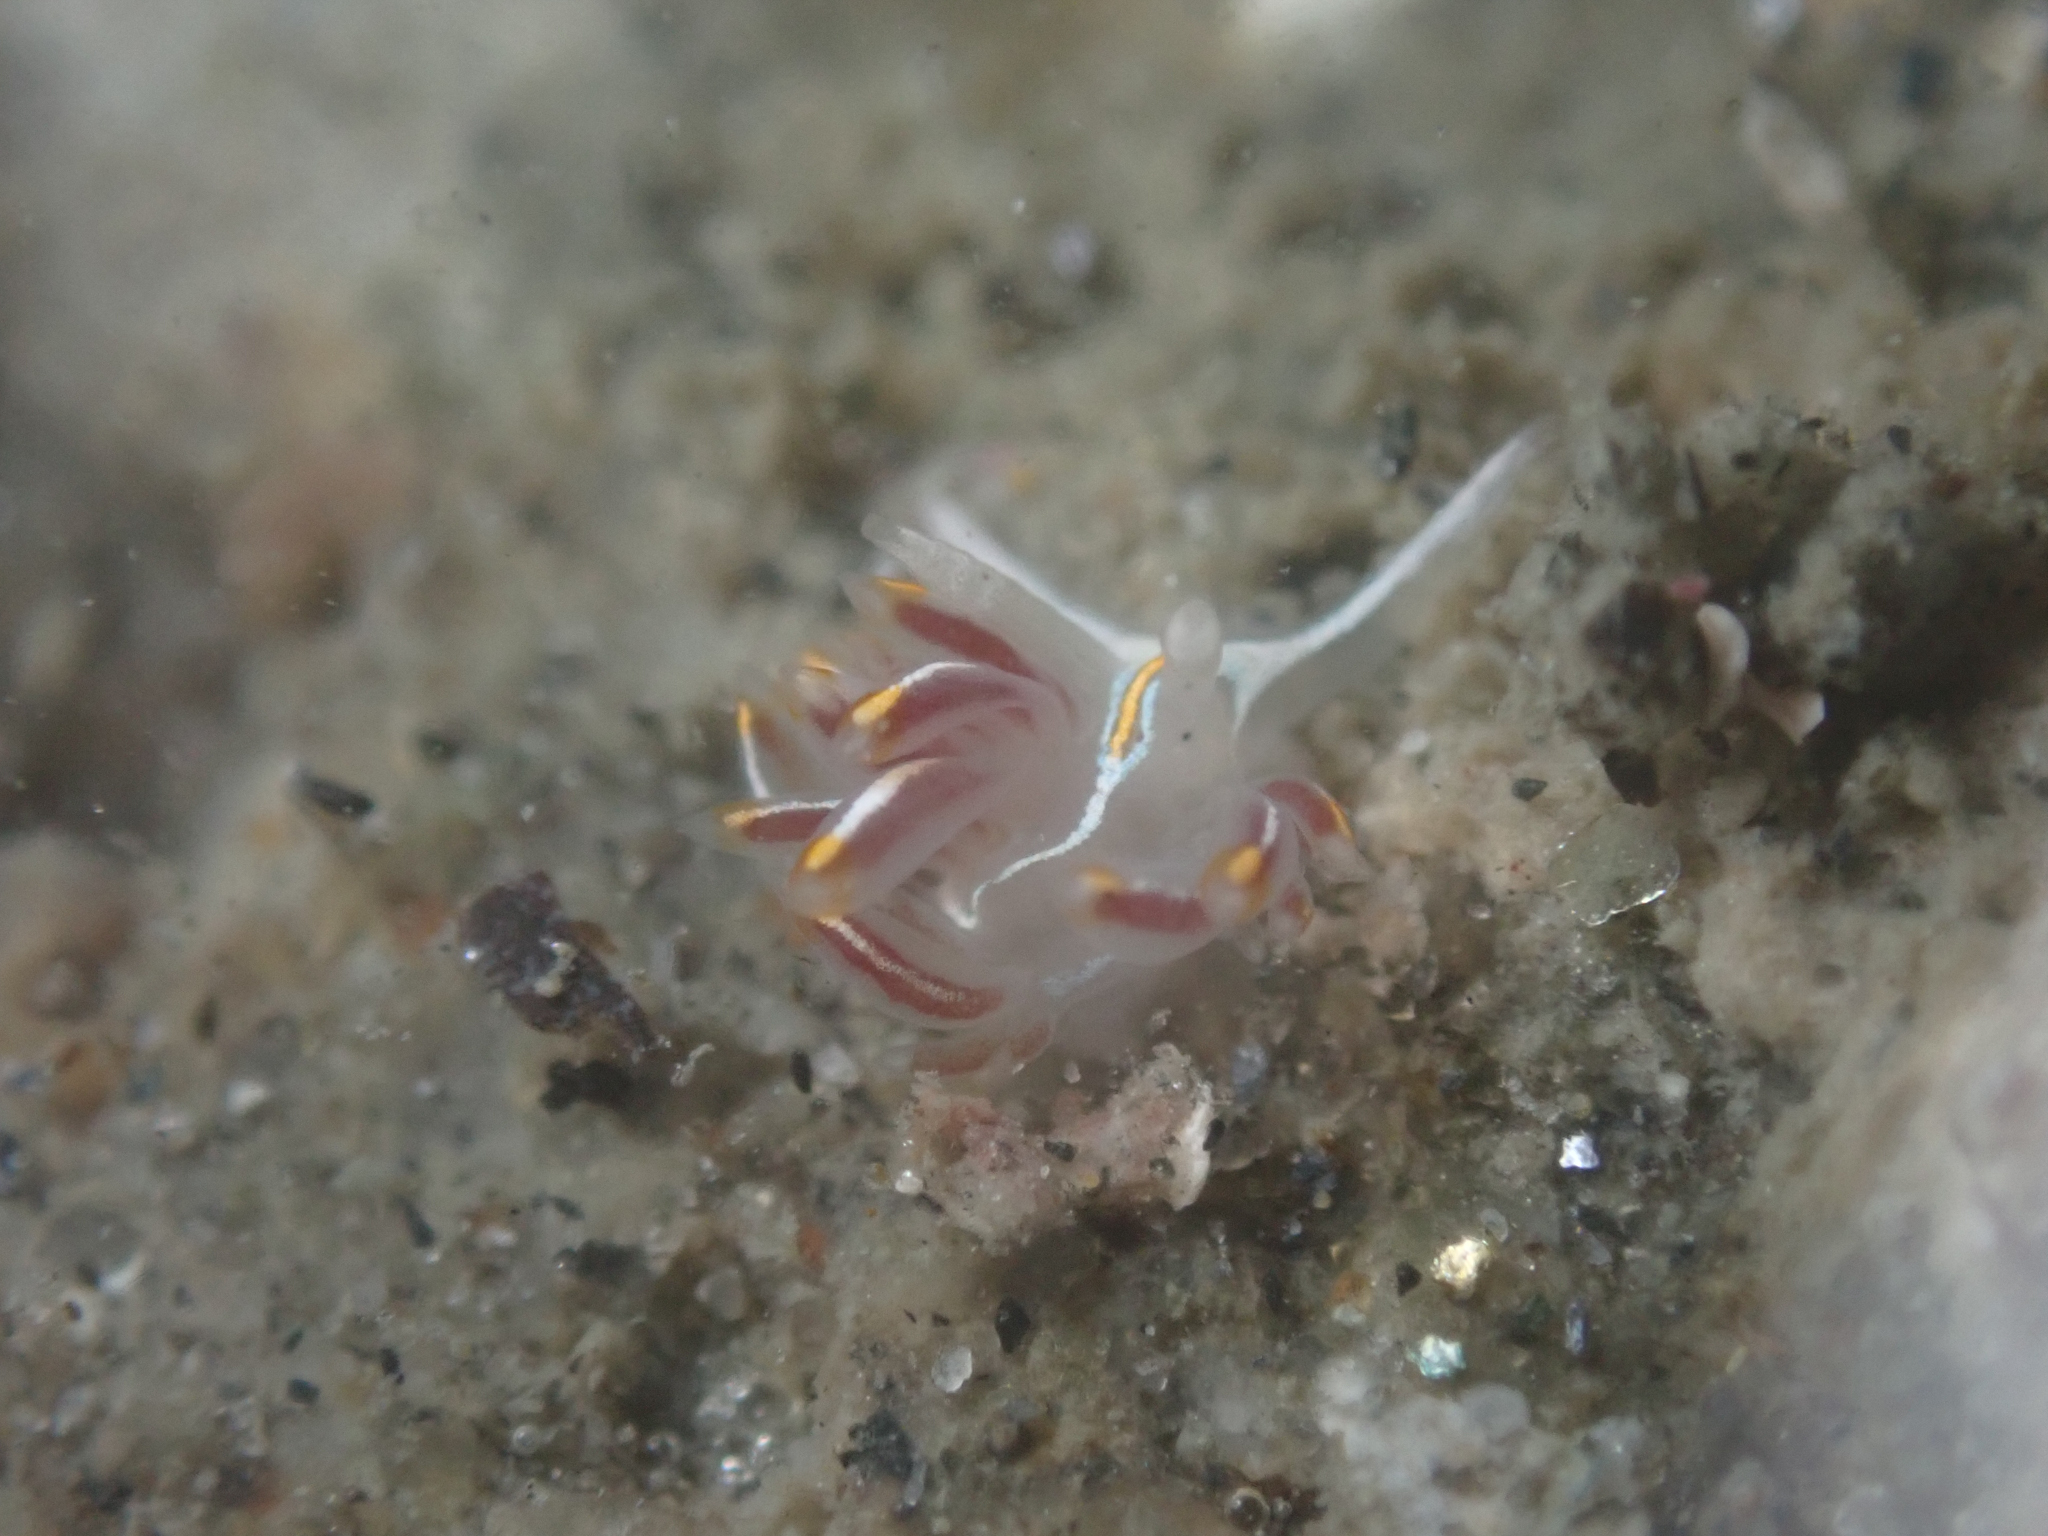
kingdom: Animalia
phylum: Mollusca
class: Gastropoda
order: Nudibranchia
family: Myrrhinidae
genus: Hermissenda
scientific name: Hermissenda crassicornis
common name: Hermissenda
